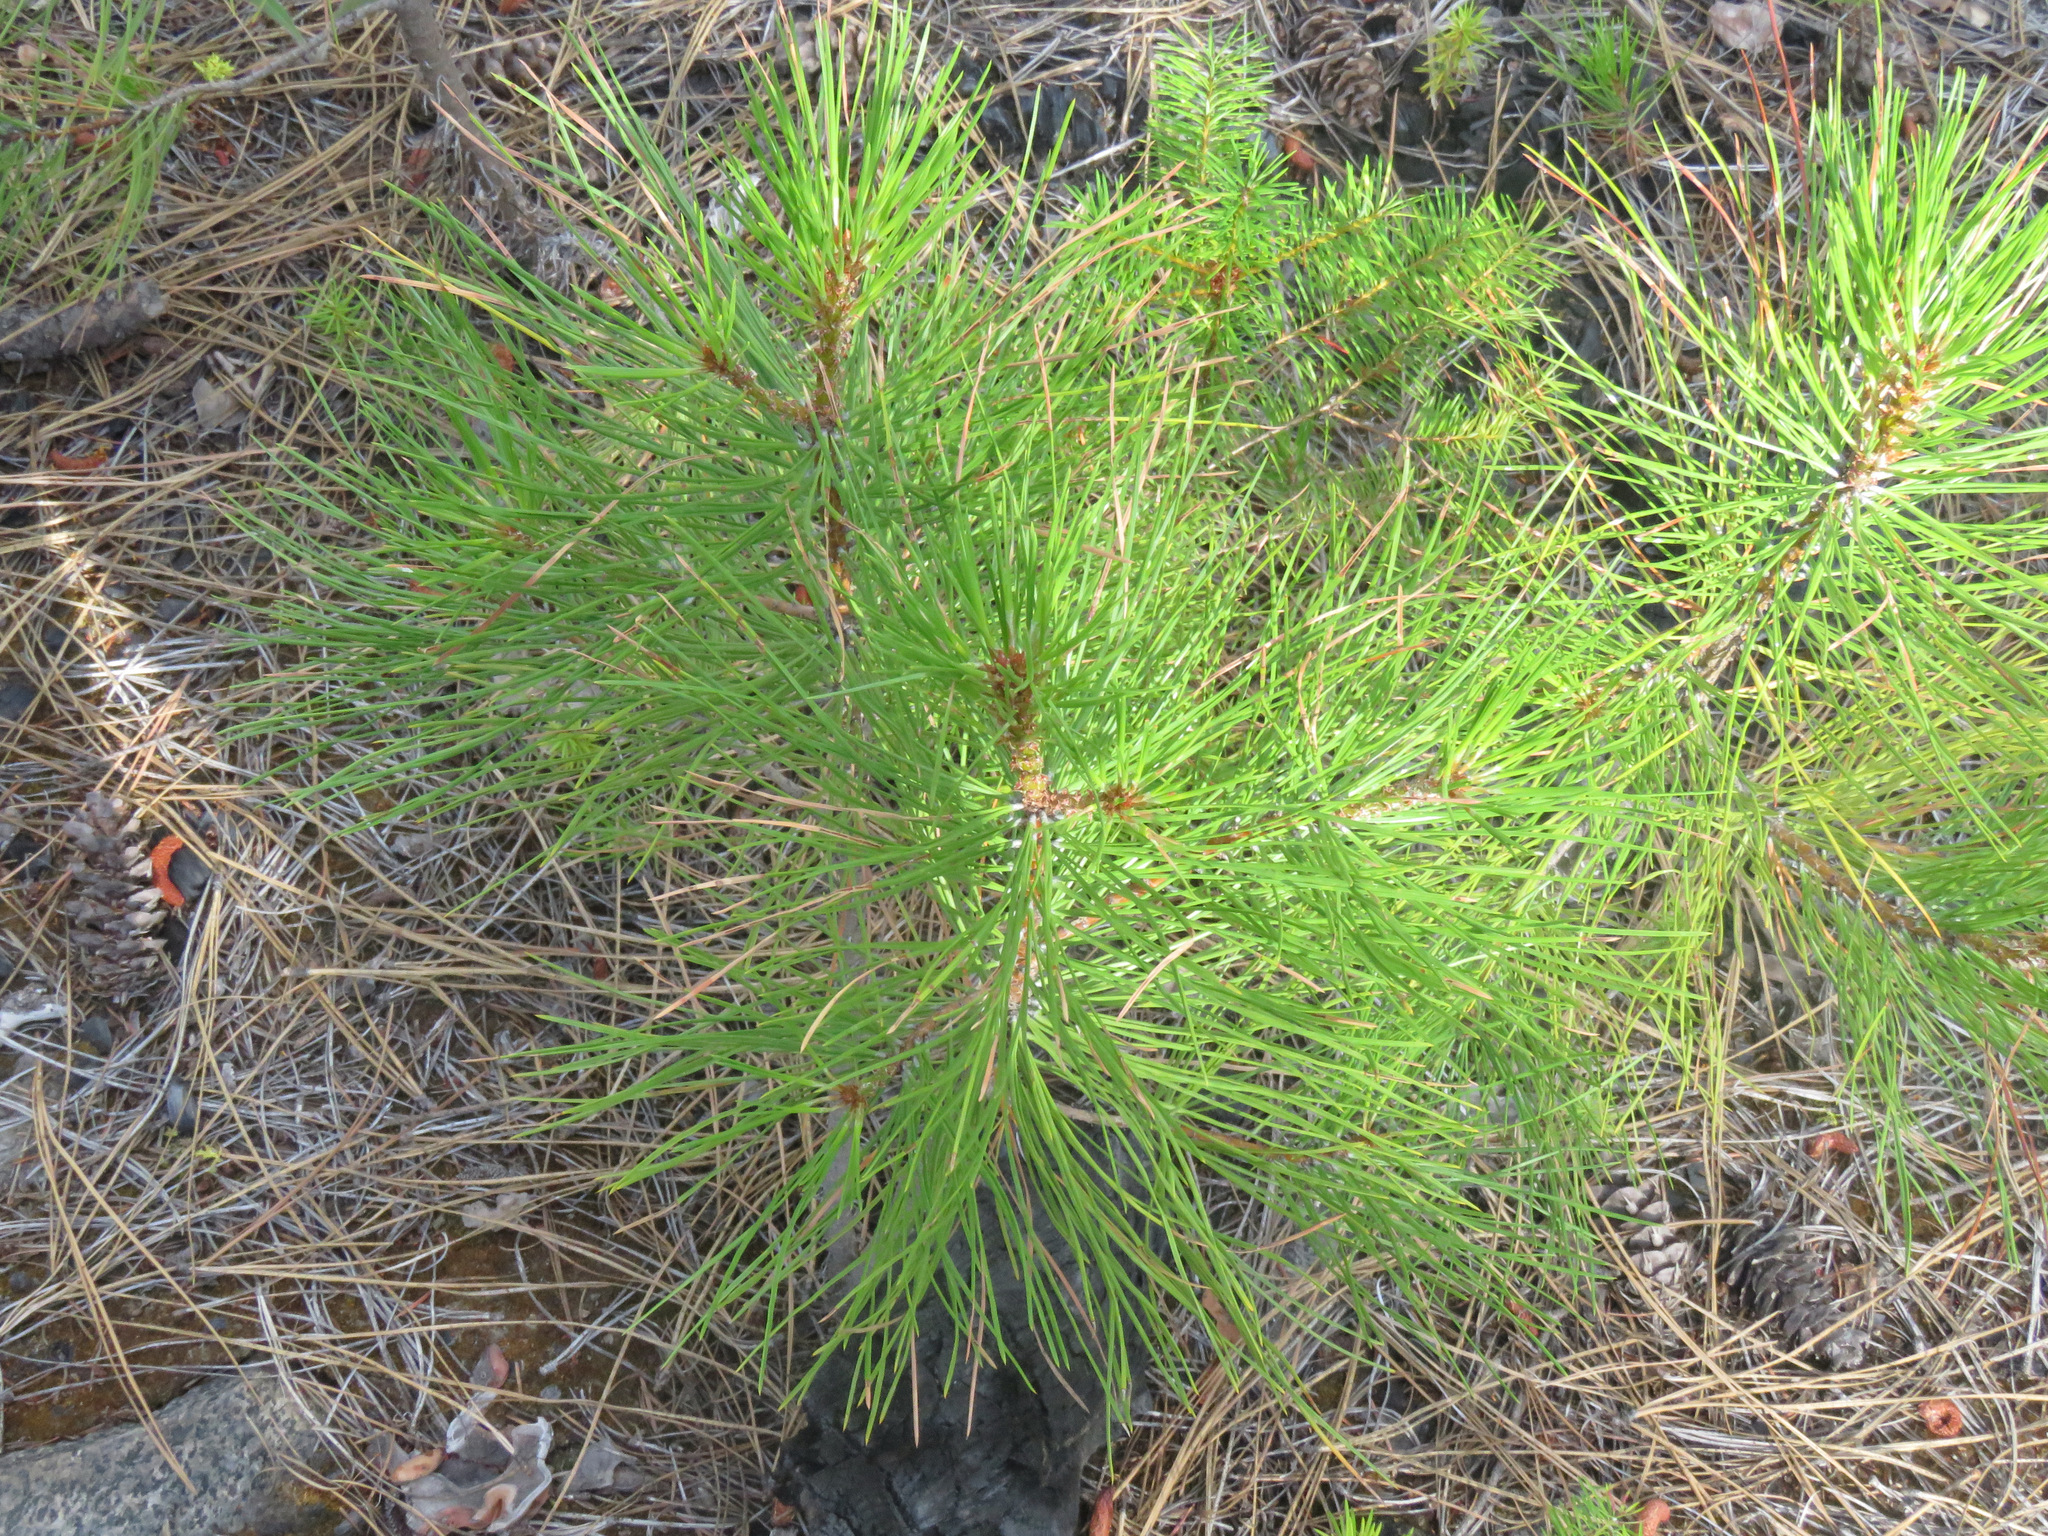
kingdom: Plantae
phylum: Tracheophyta
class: Pinopsida
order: Pinales
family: Pinaceae
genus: Pinus
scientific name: Pinus ponderosa
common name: Western yellow-pine
